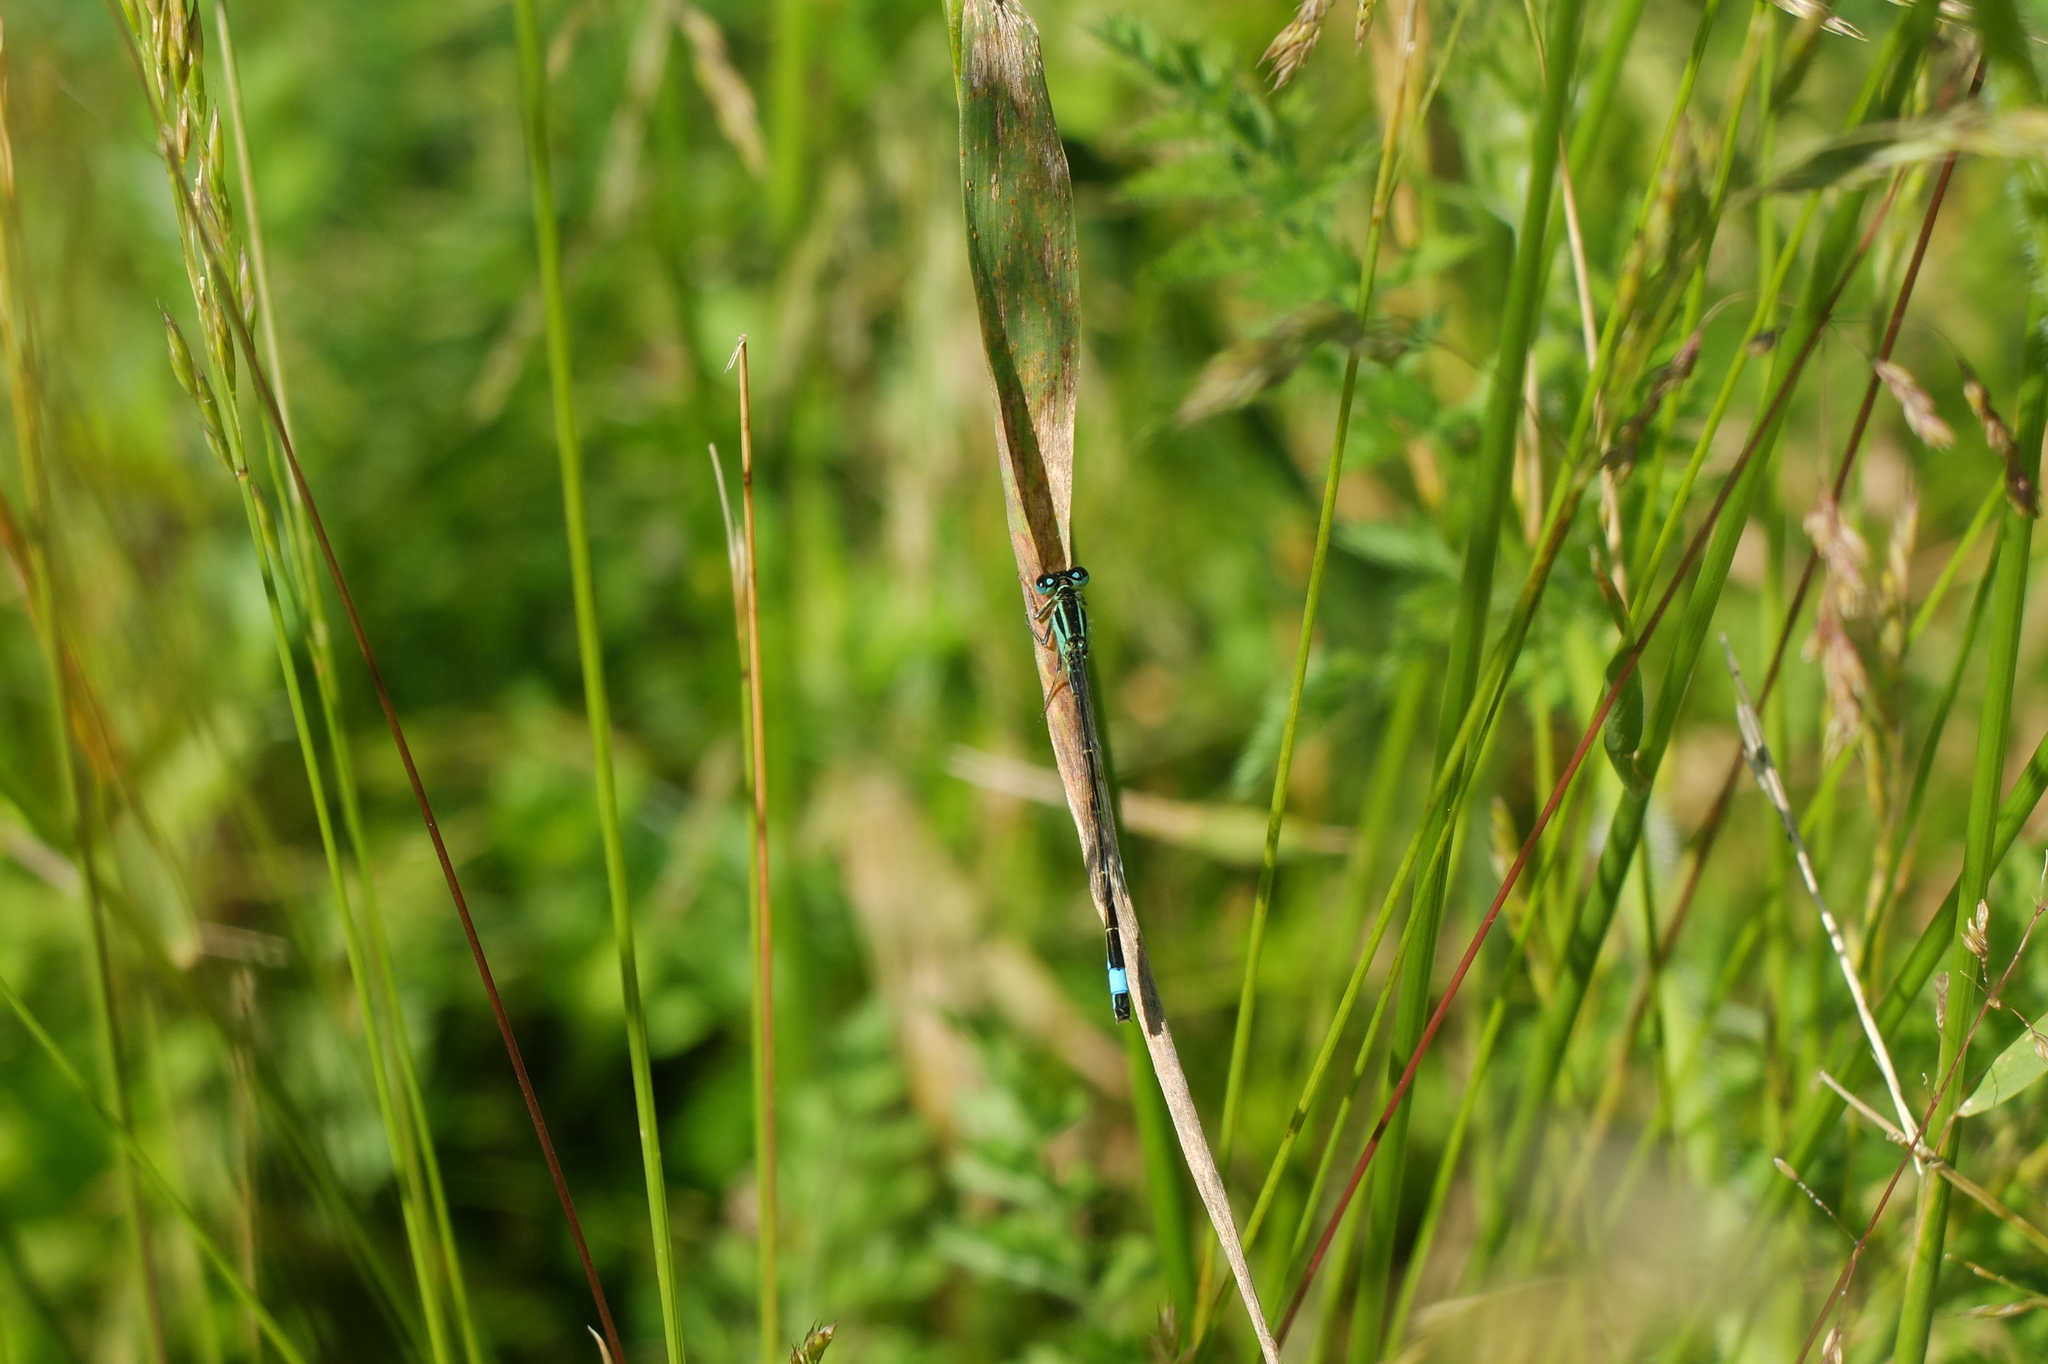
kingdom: Animalia
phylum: Arthropoda
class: Insecta
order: Odonata
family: Coenagrionidae
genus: Ischnura
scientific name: Ischnura elegans
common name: Blue-tailed damselfly
